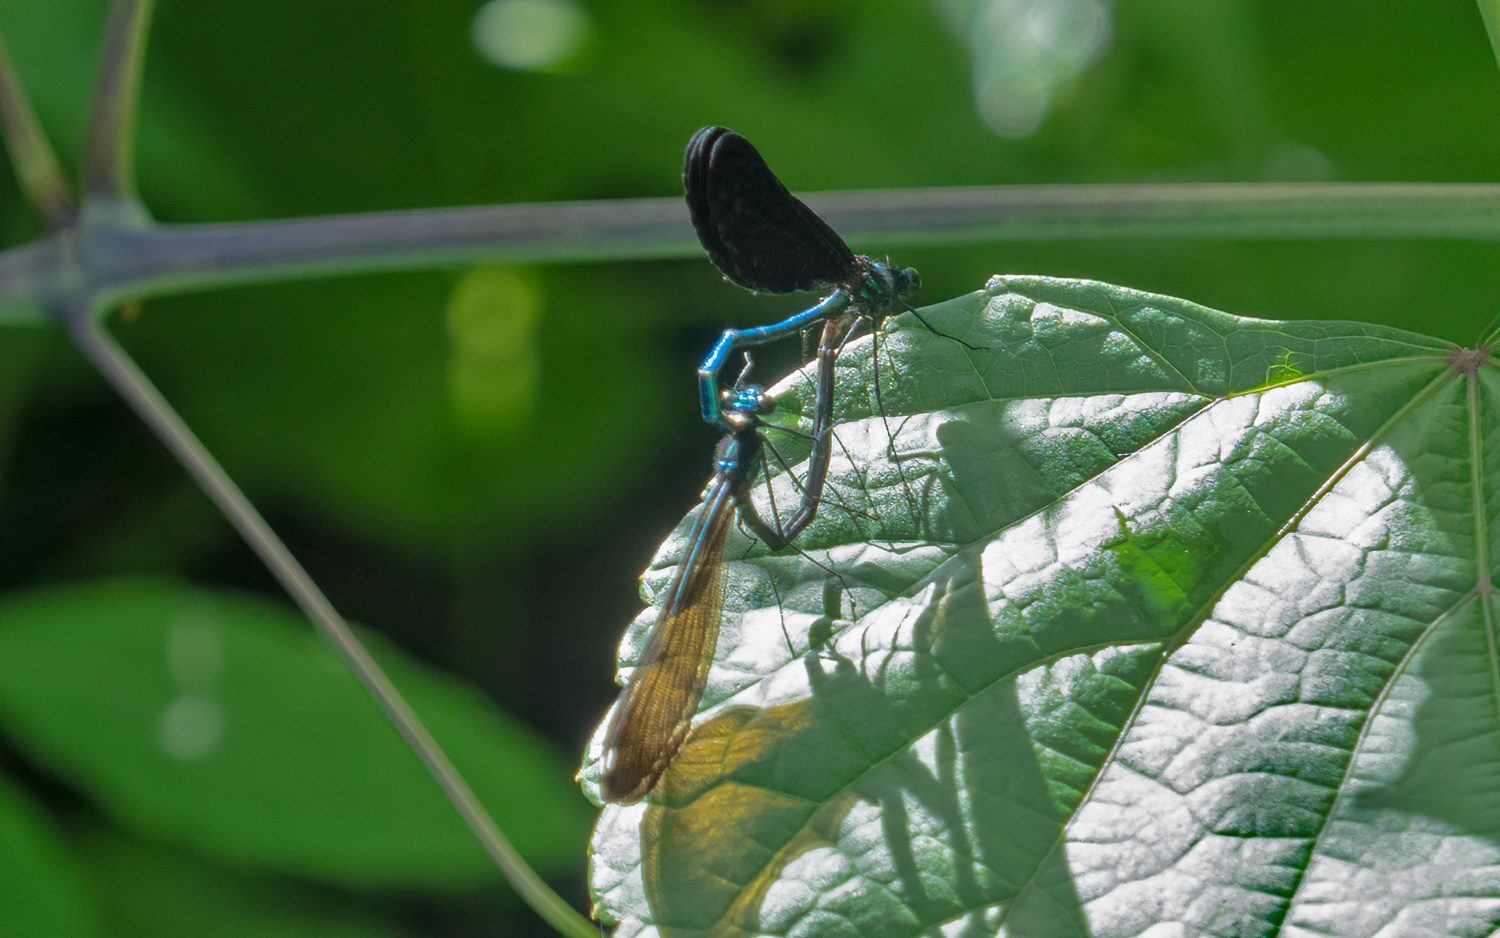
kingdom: Animalia
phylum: Arthropoda
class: Insecta
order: Odonata
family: Calopterygidae
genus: Calopteryx
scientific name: Calopteryx maculata
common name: Ebony jewelwing
